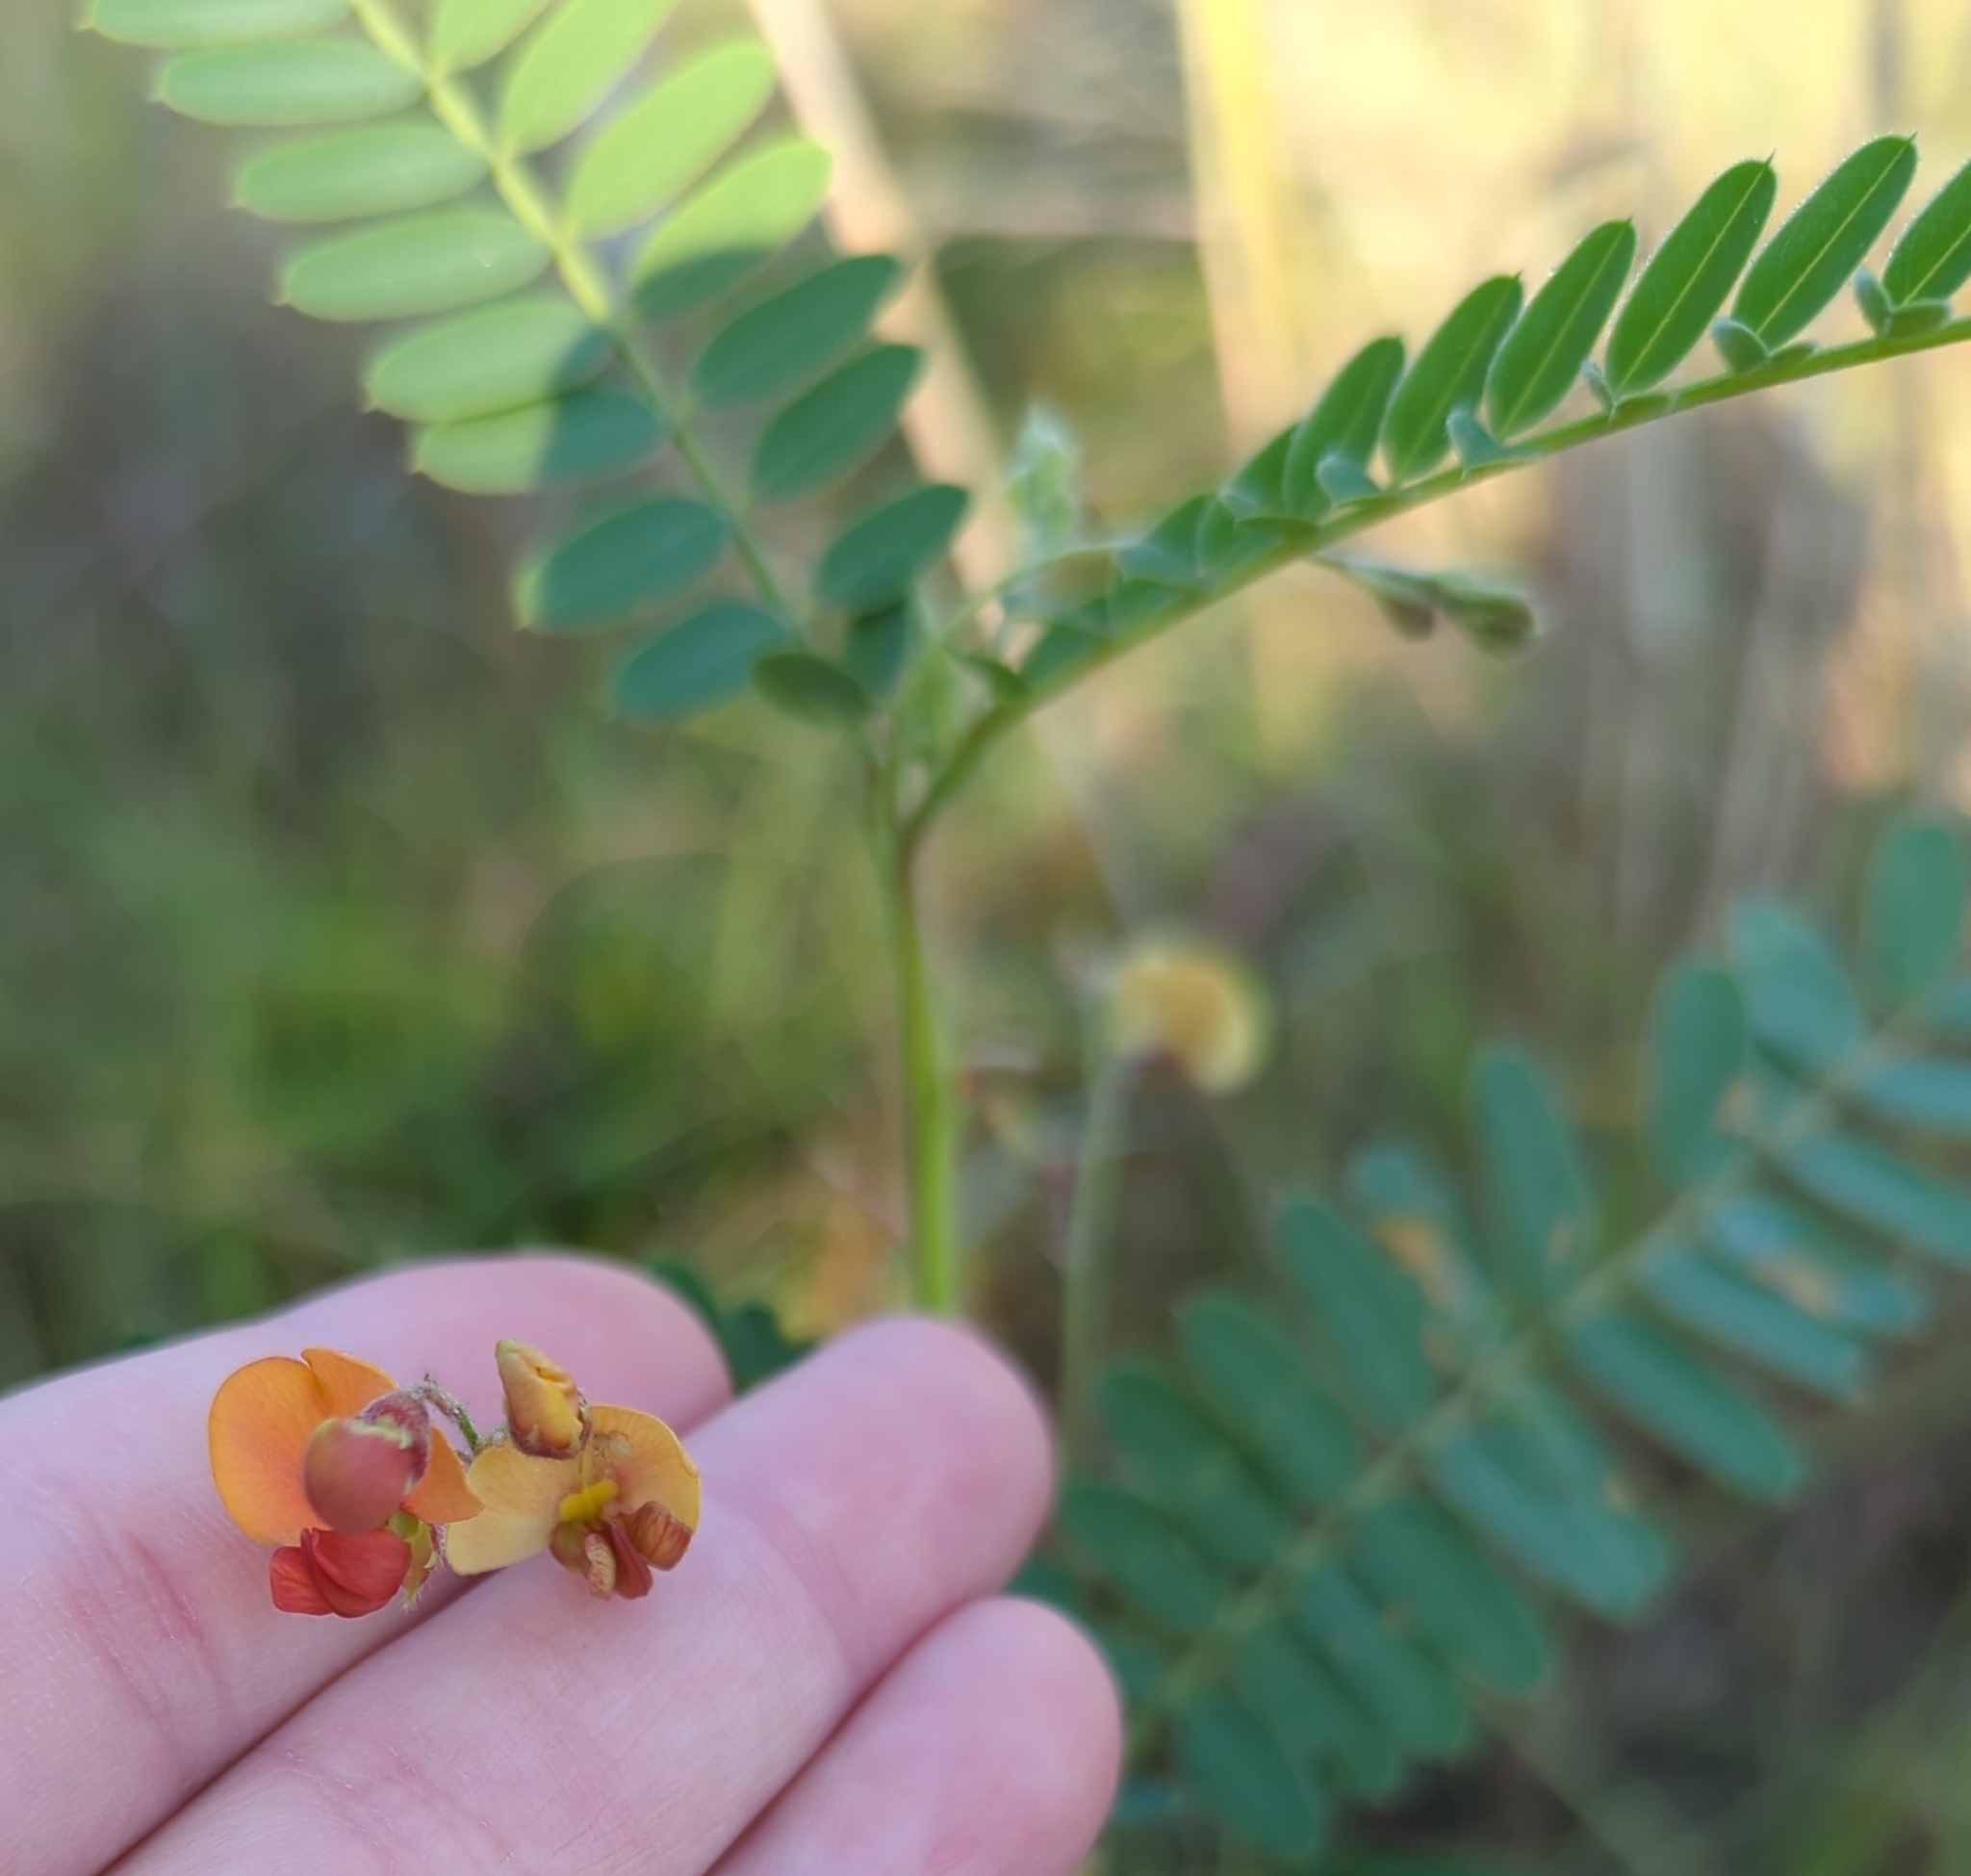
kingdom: Plantae
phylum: Tracheophyta
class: Magnoliopsida
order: Fabales
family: Fabaceae
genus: Sesbania
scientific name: Sesbania vesicaria
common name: Bagpod
